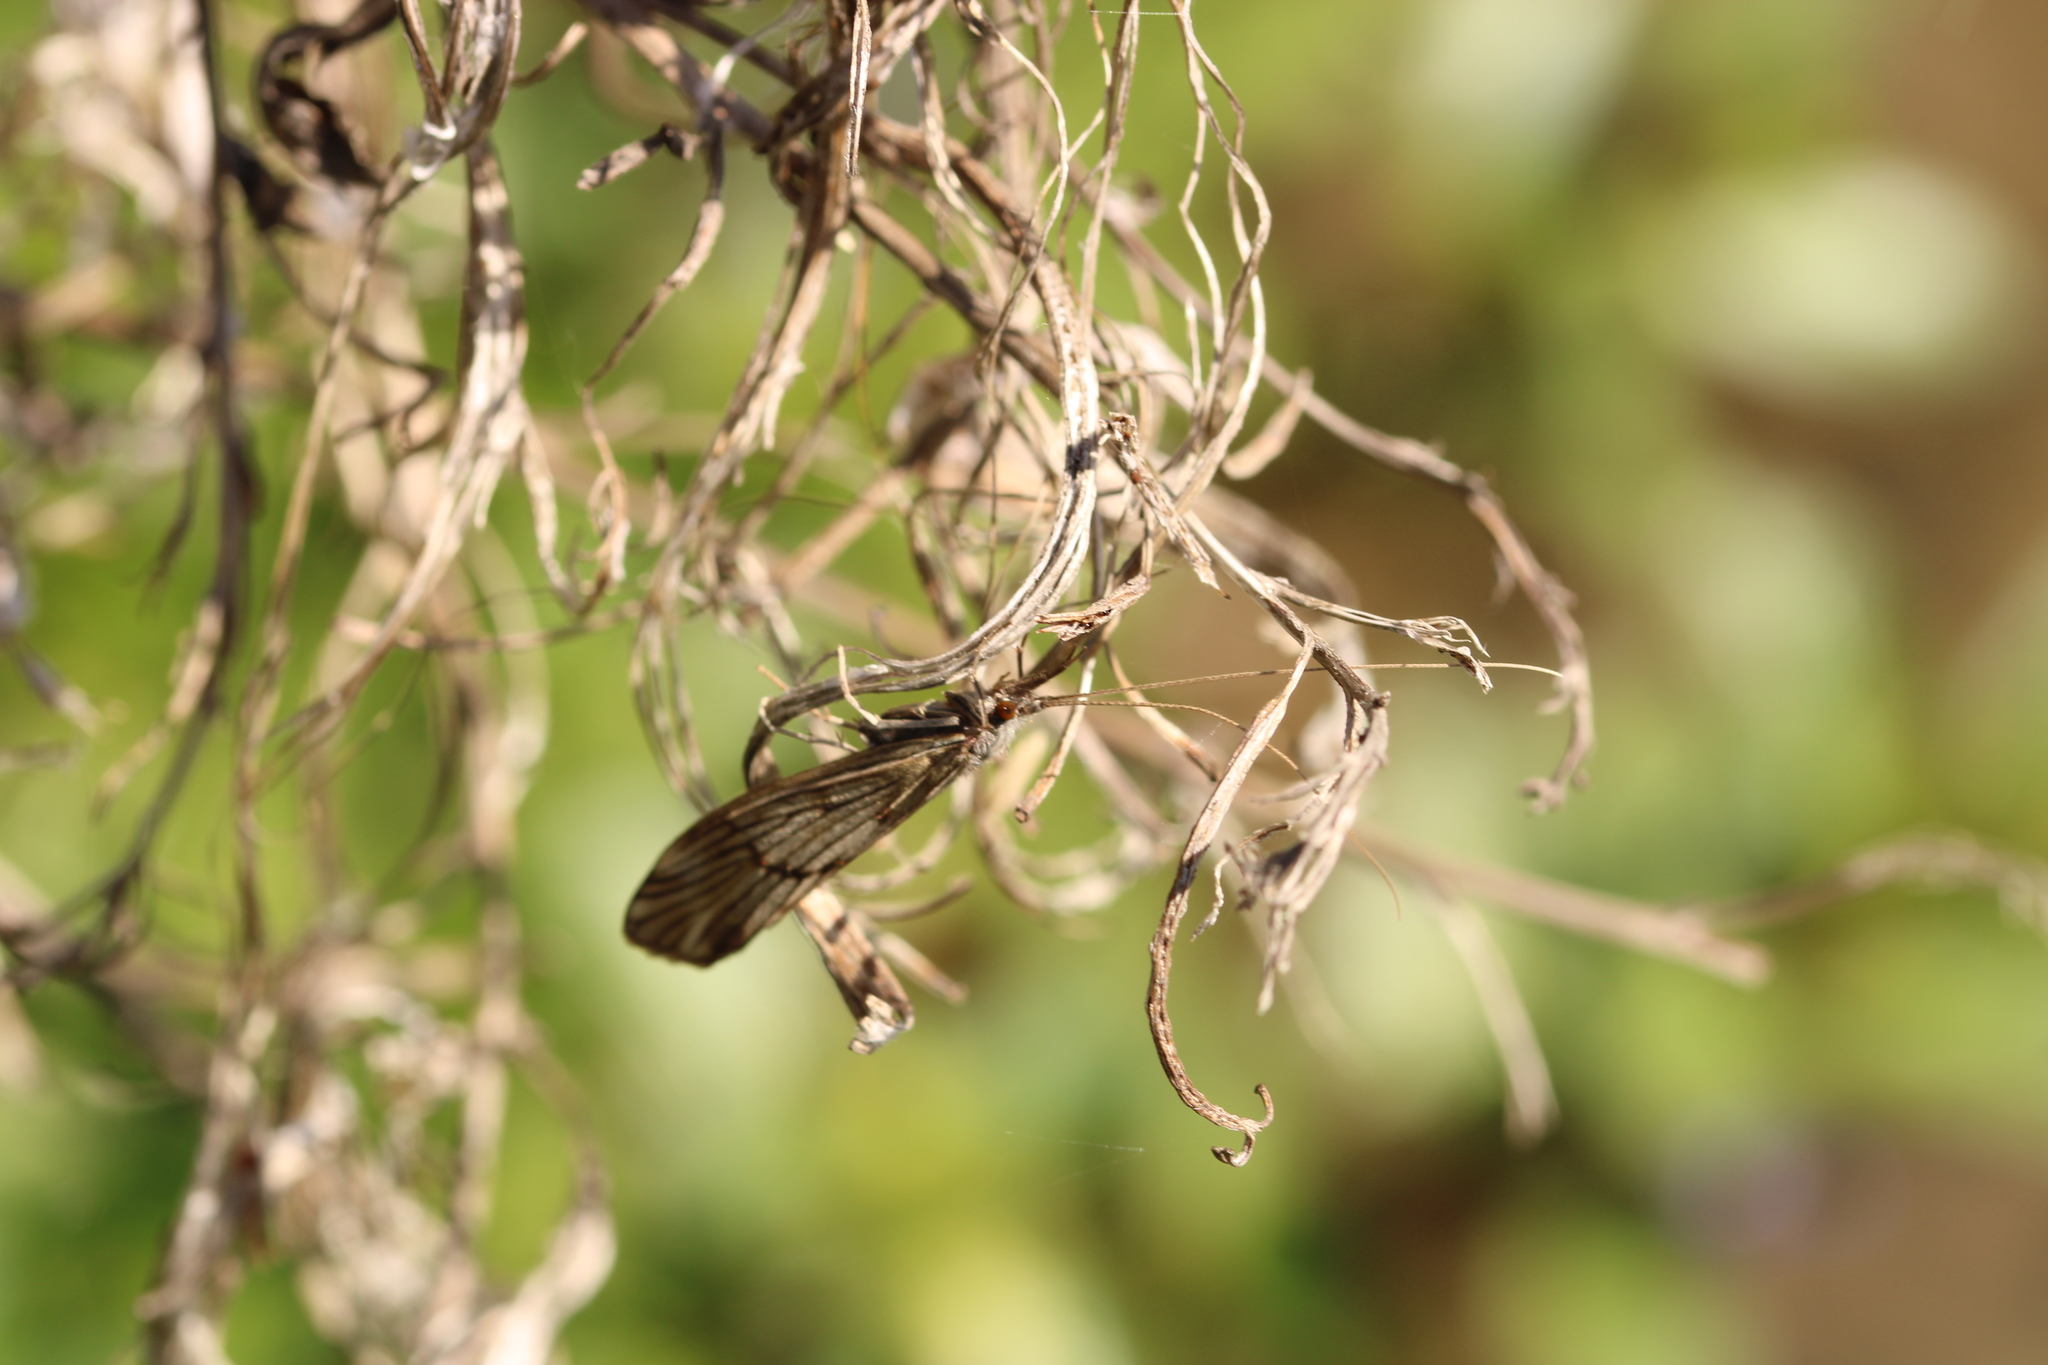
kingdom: Animalia
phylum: Arthropoda
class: Insecta
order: Trichoptera
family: Odontoceridae
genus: Odontocerum
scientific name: Odontocerum albicorne
